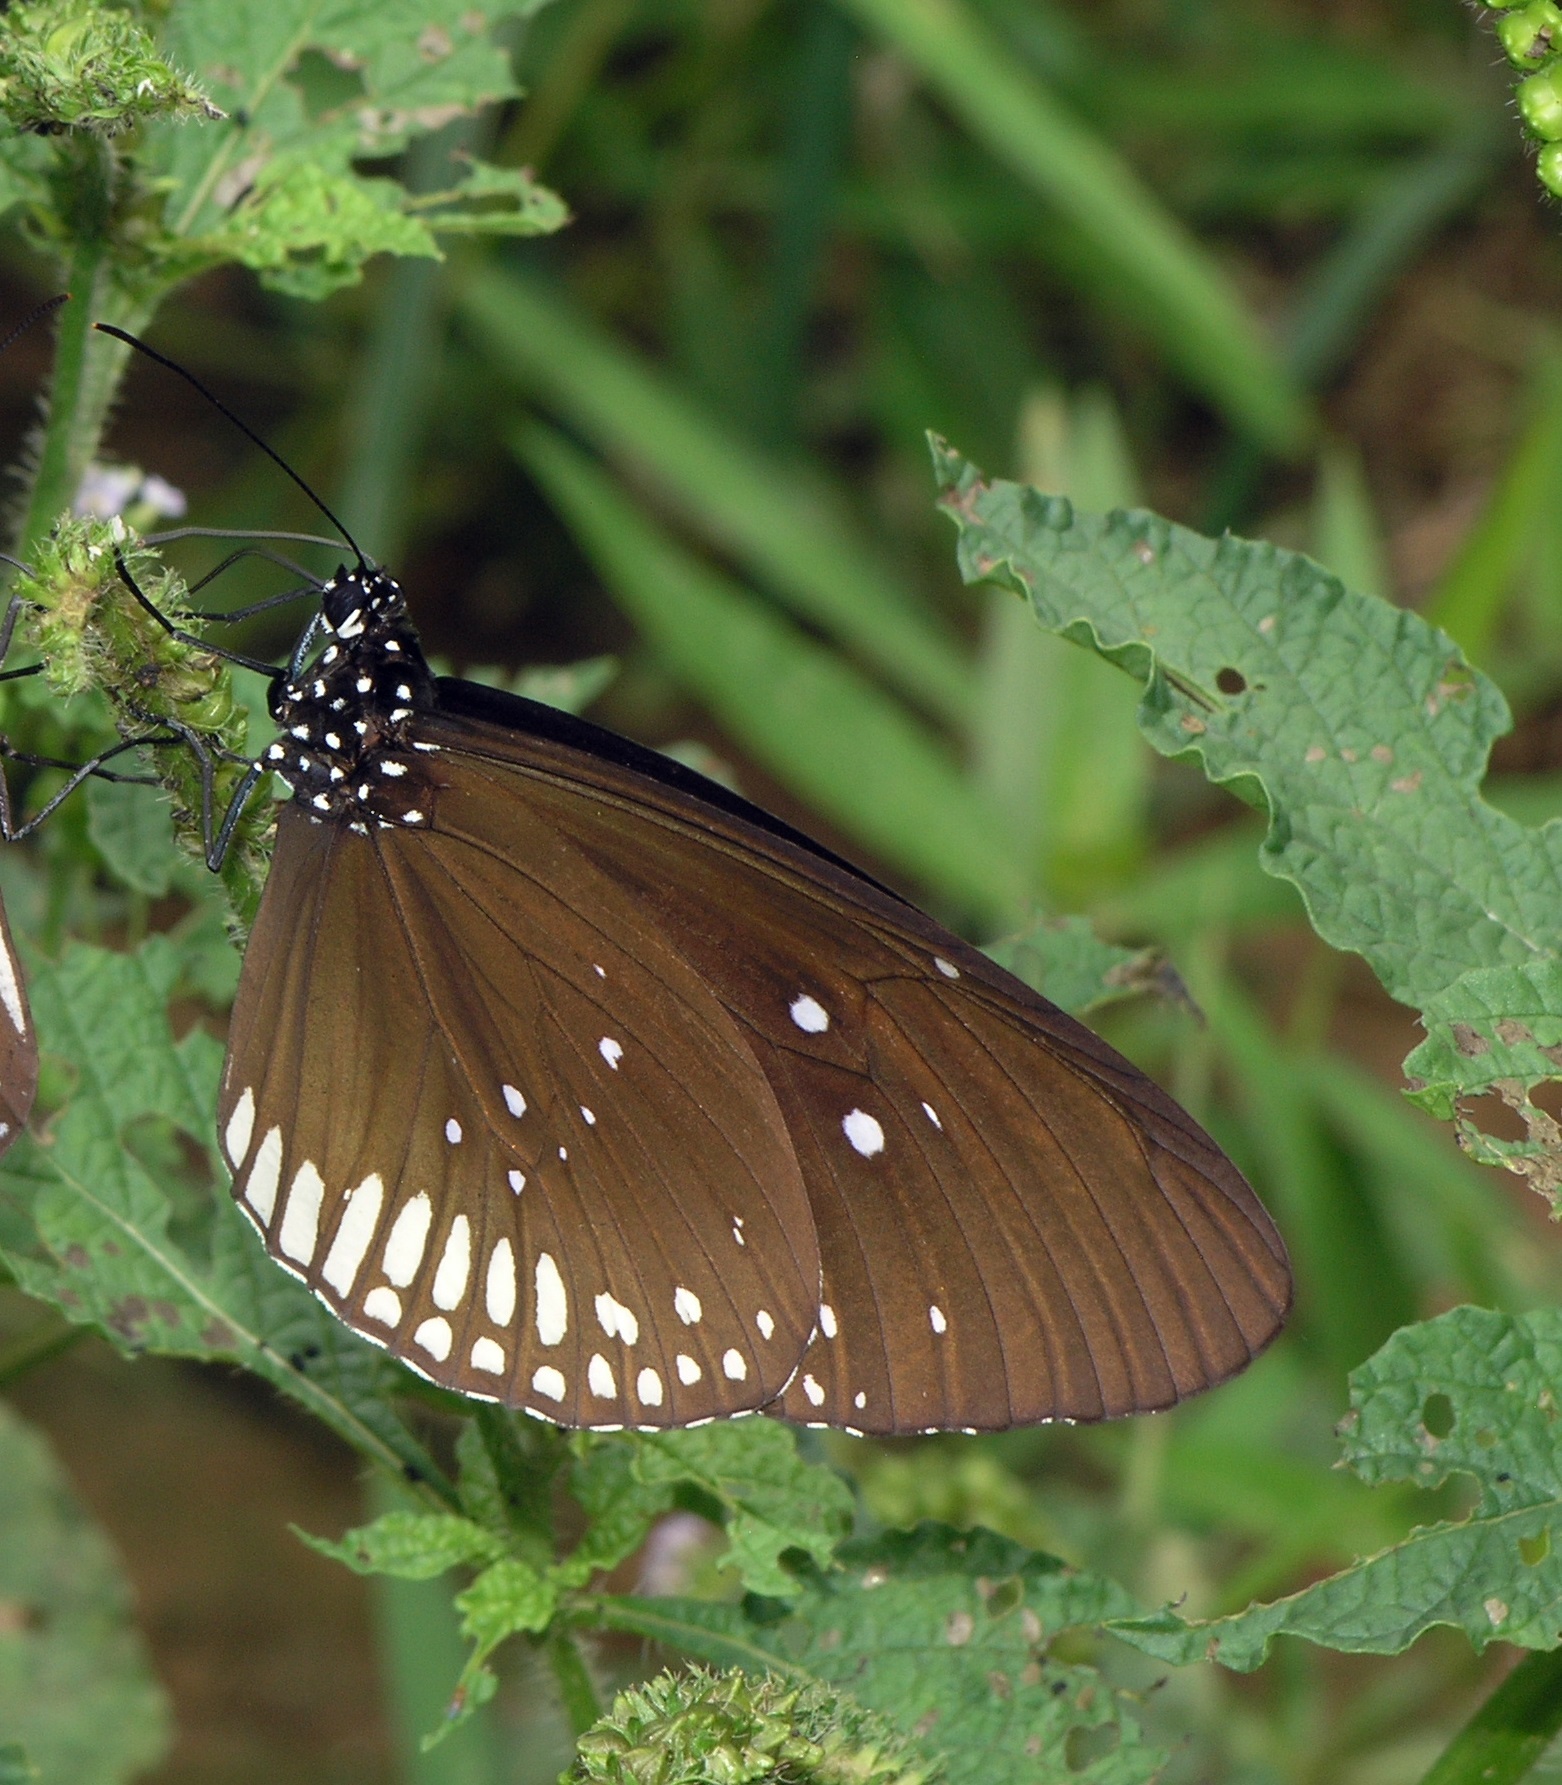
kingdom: Animalia
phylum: Arthropoda
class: Insecta
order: Lepidoptera
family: Nymphalidae
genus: Euploea
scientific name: Euploea algea
